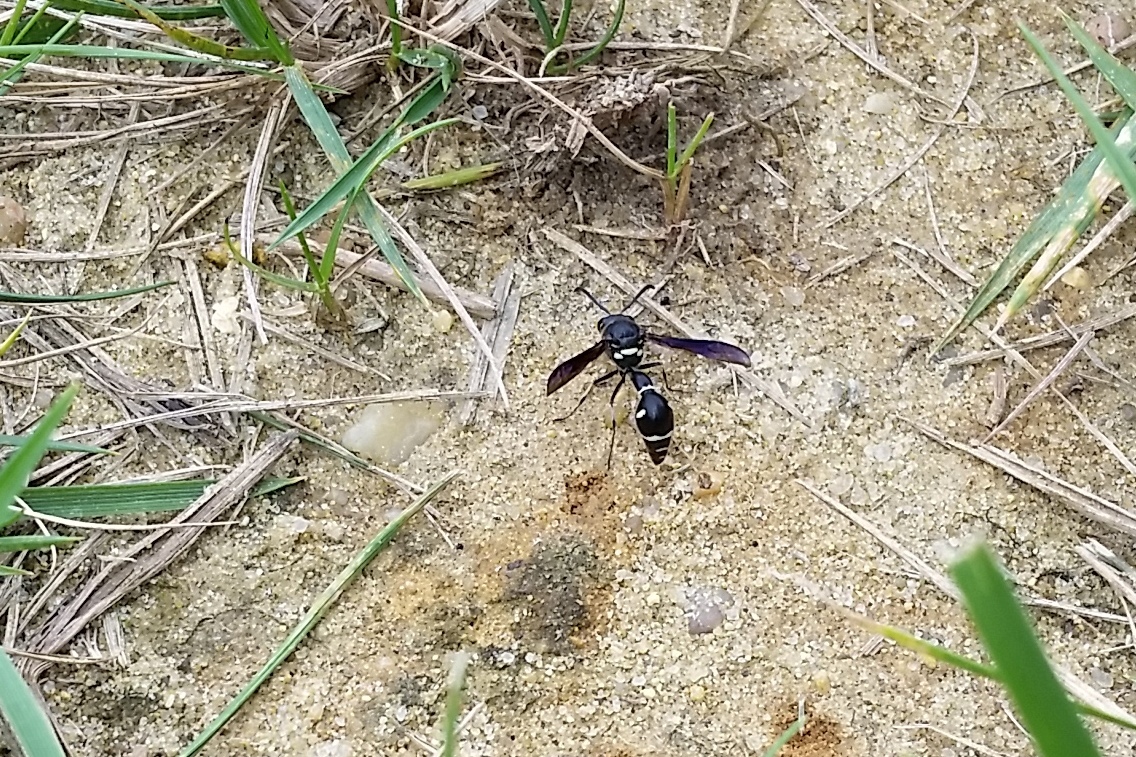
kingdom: Animalia
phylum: Arthropoda
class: Insecta
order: Hymenoptera
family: Vespidae
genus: Eumenes
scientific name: Eumenes fraternus
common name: Fraternal potter wasp
